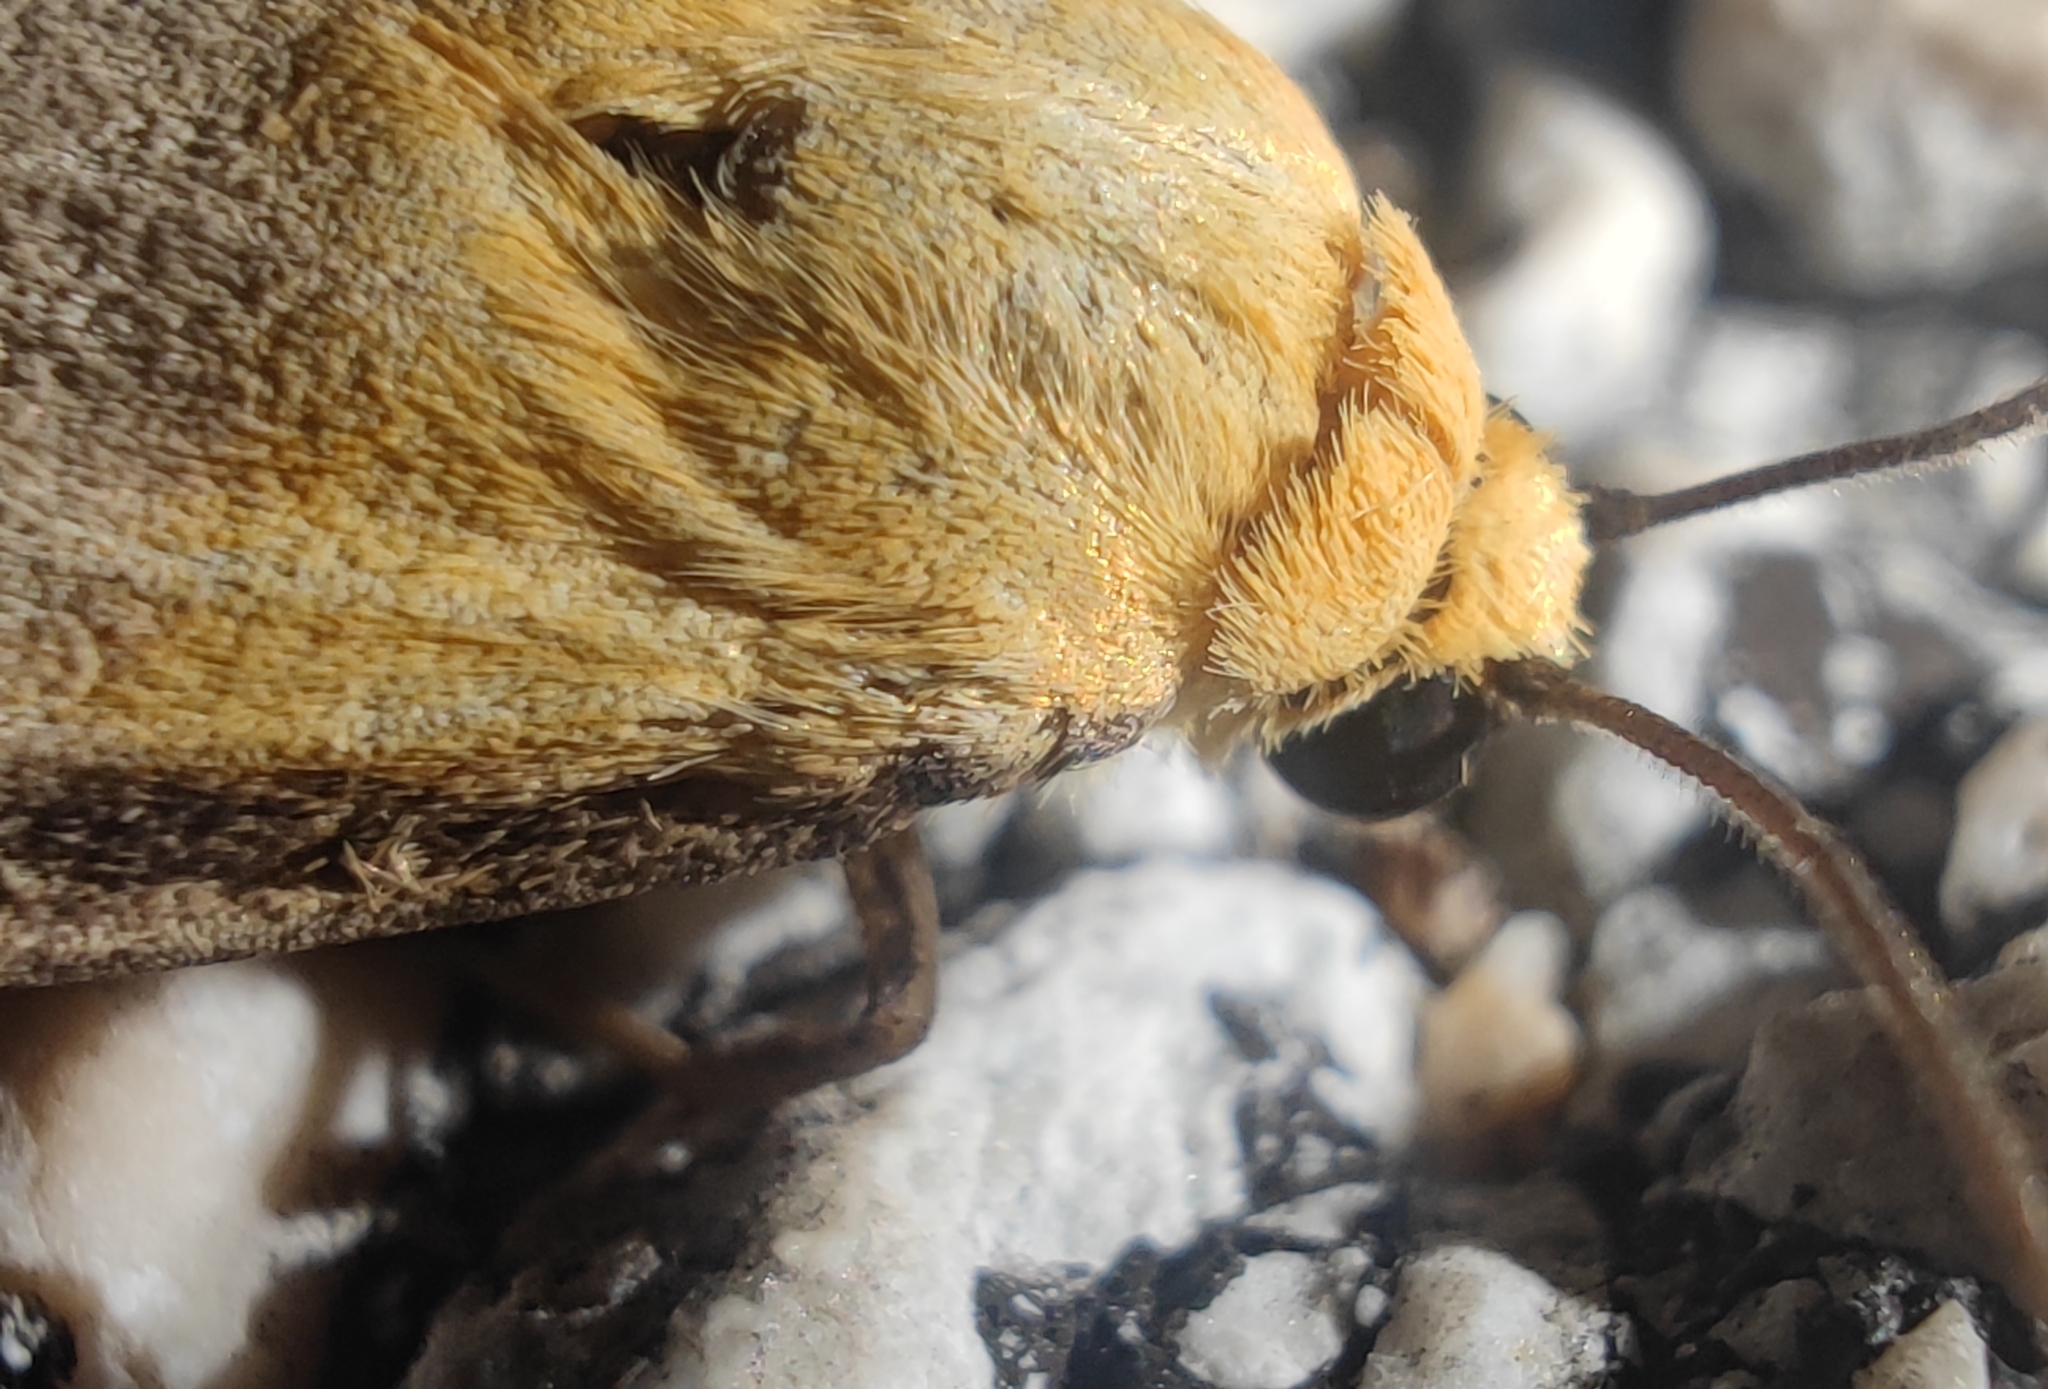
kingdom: Animalia
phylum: Arthropoda
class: Insecta
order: Lepidoptera
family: Erebidae
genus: Lithosia
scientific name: Lithosia quadra
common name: Four-spotted footman
